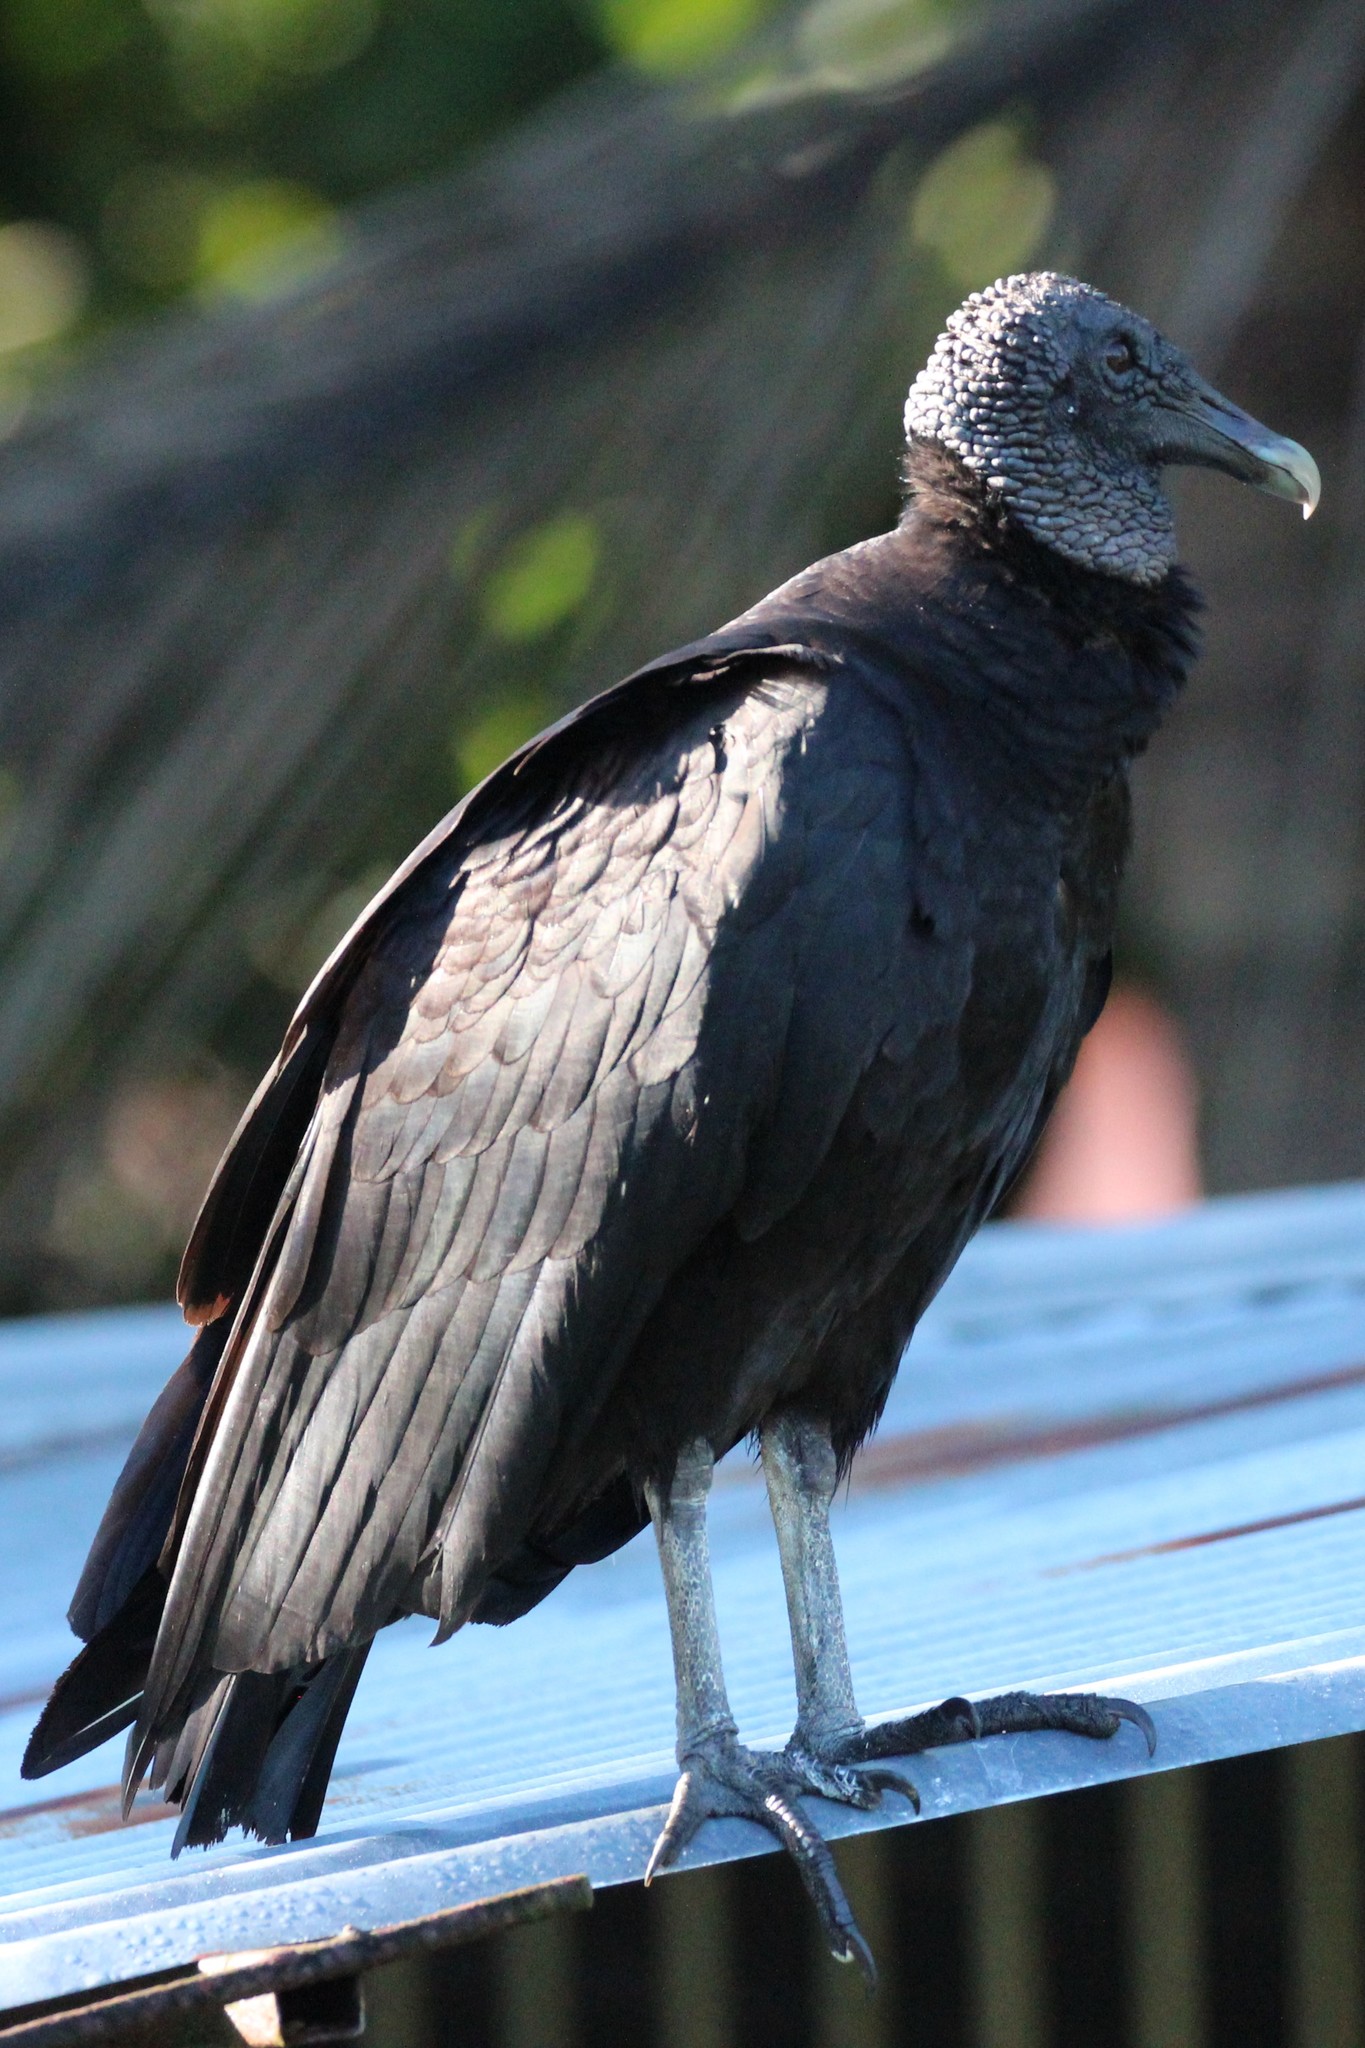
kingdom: Animalia
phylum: Chordata
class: Aves
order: Accipitriformes
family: Cathartidae
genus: Coragyps
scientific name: Coragyps atratus
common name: Black vulture
